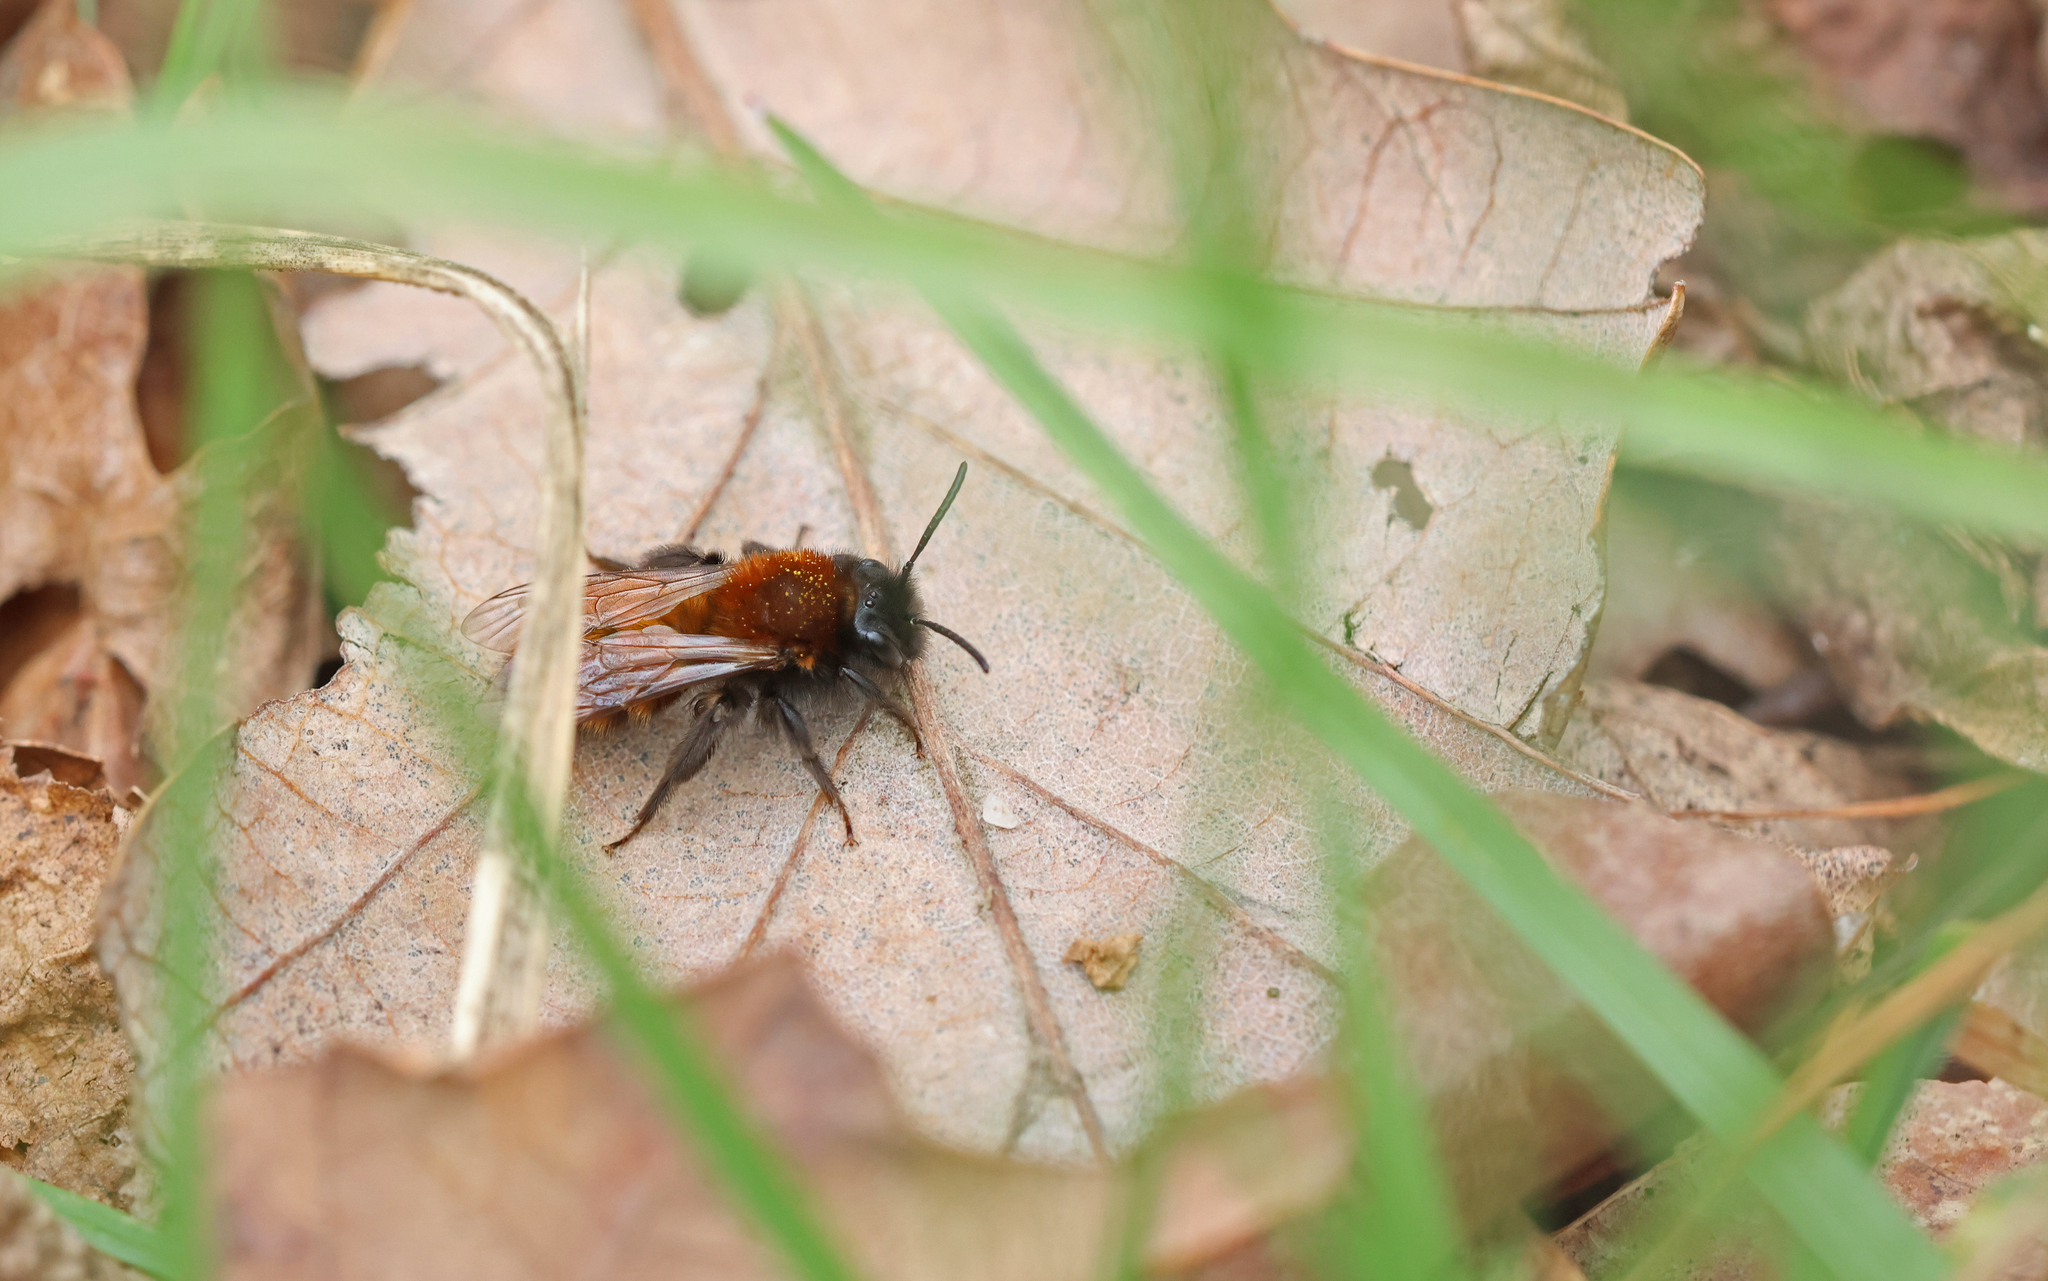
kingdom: Animalia
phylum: Arthropoda
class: Insecta
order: Hymenoptera
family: Andrenidae
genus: Andrena
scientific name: Andrena fulva
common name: Tawny mining bee
